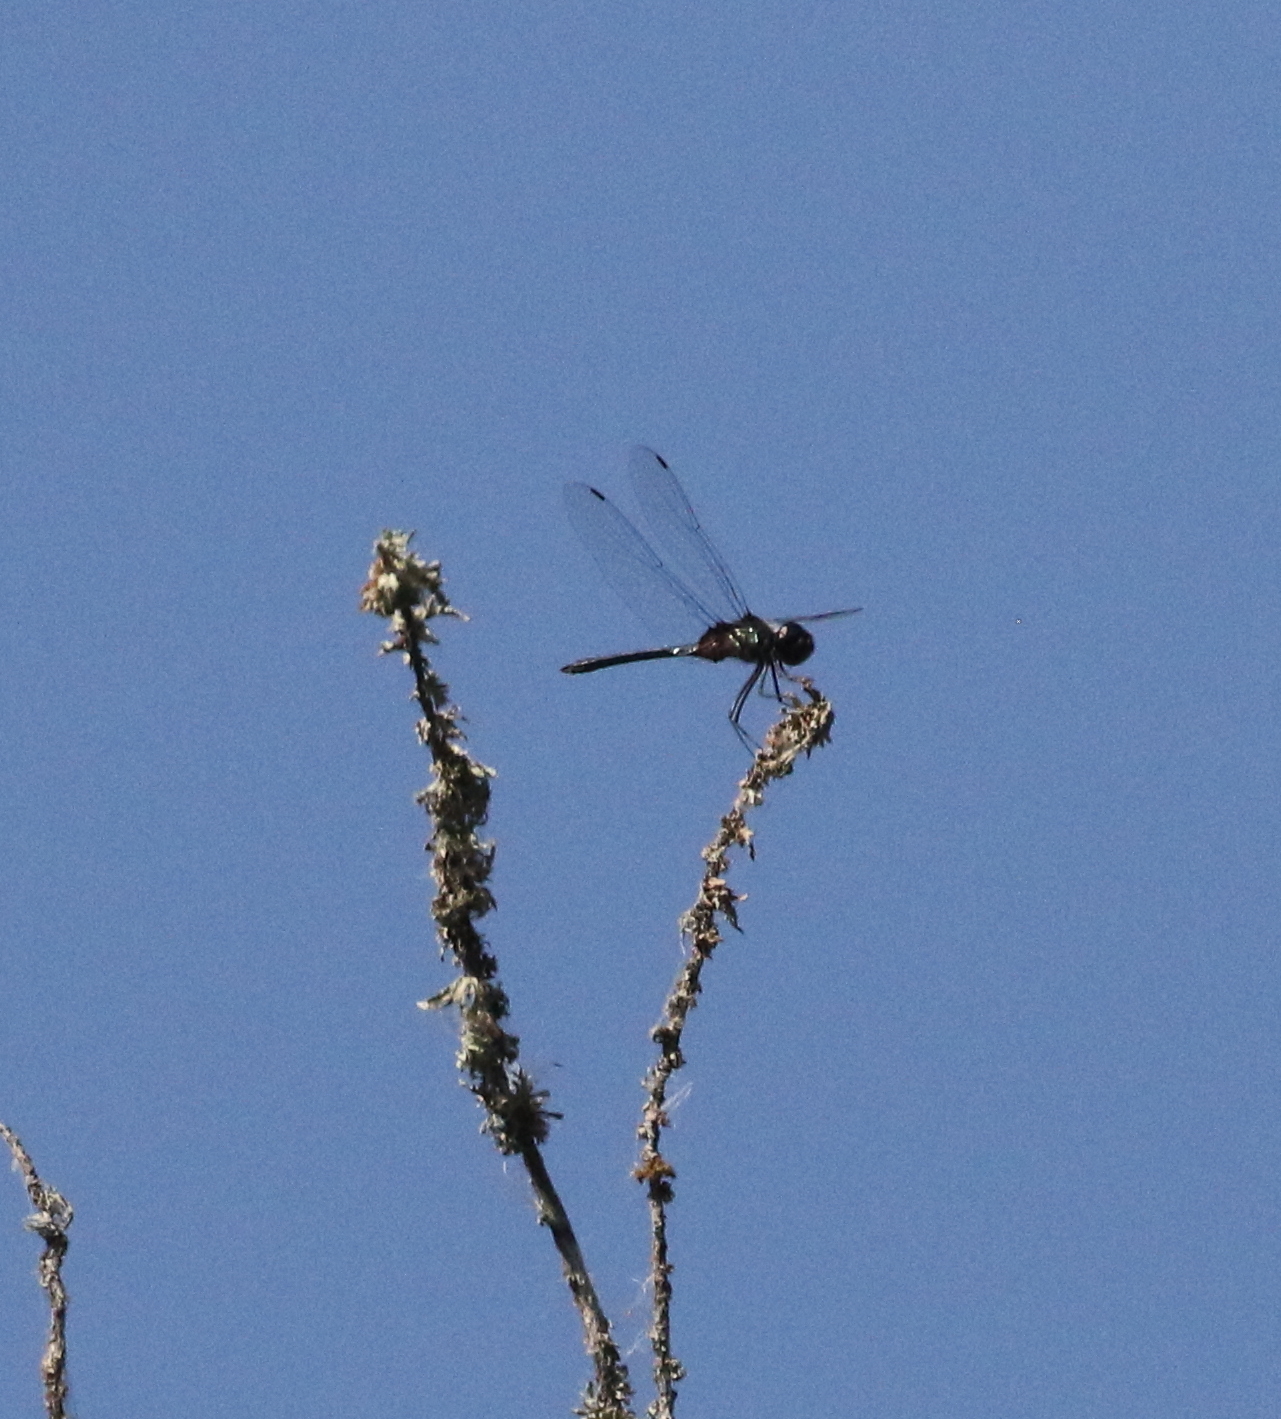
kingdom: Animalia
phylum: Arthropoda
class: Insecta
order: Odonata
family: Libellulidae
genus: Idiataphe
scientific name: Idiataphe cubensis
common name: Metallic pennant
